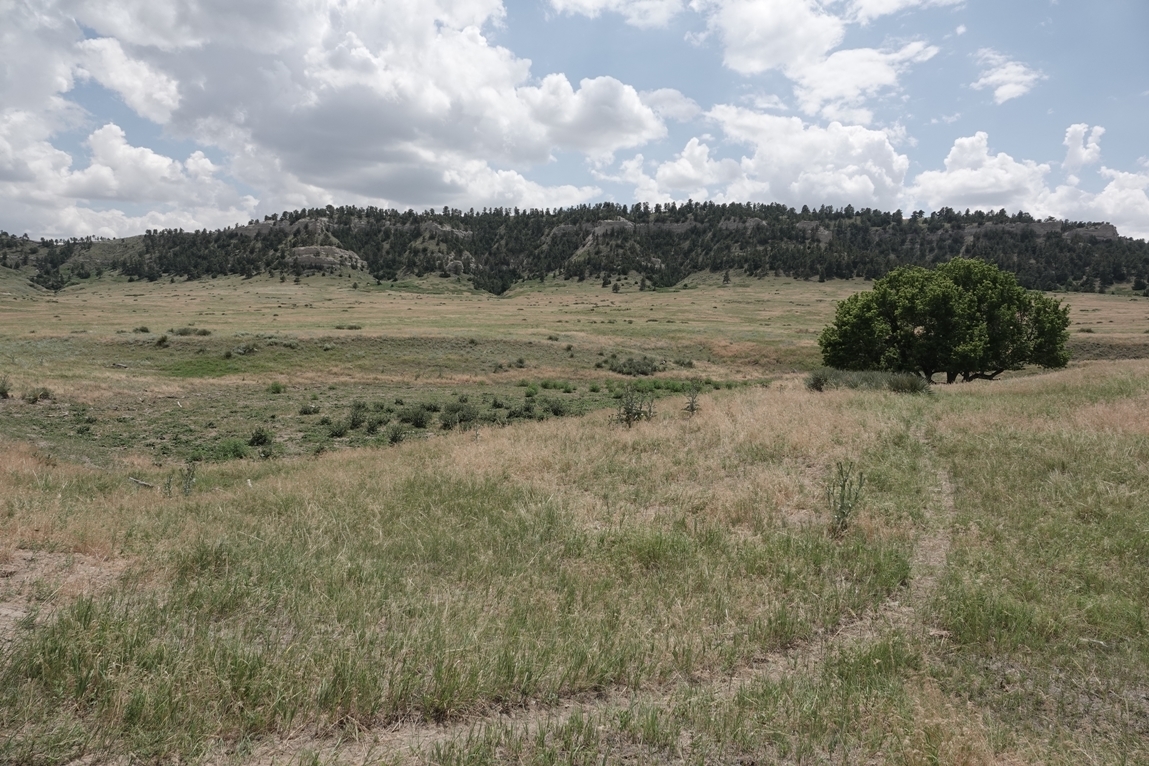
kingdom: Plantae
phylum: Tracheophyta
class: Magnoliopsida
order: Asterales
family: Asteraceae
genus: Onopordum
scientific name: Onopordum acanthium
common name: Scotch thistle
